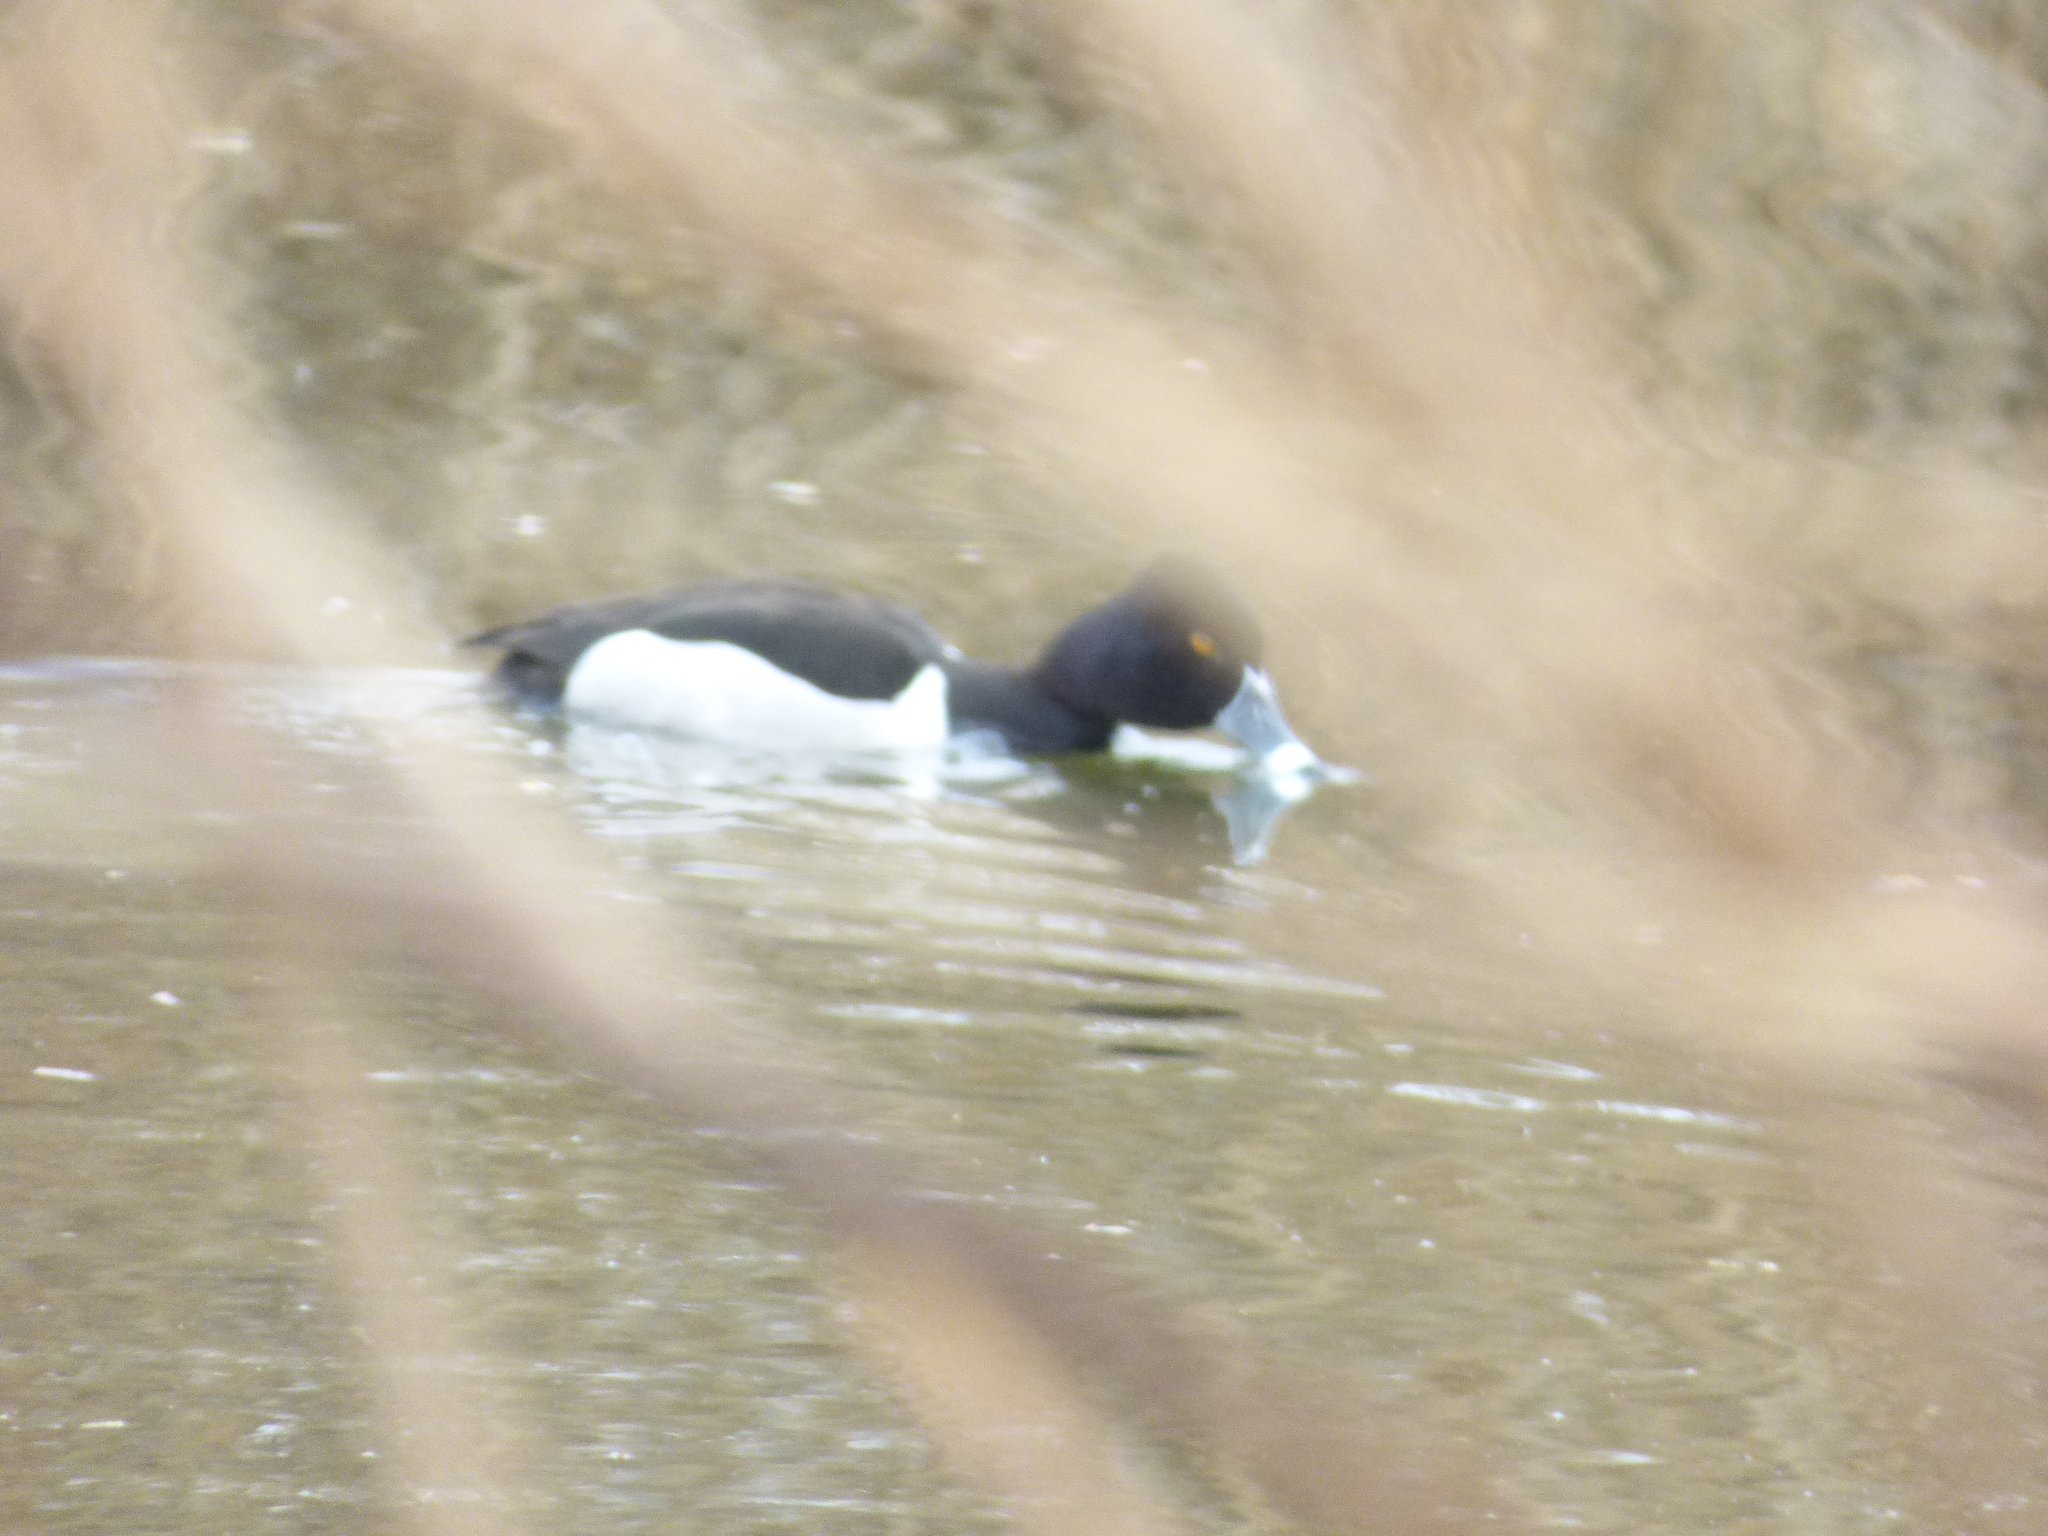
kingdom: Animalia
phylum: Chordata
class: Aves
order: Anseriformes
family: Anatidae
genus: Aythya
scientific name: Aythya collaris
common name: Ring-necked duck
